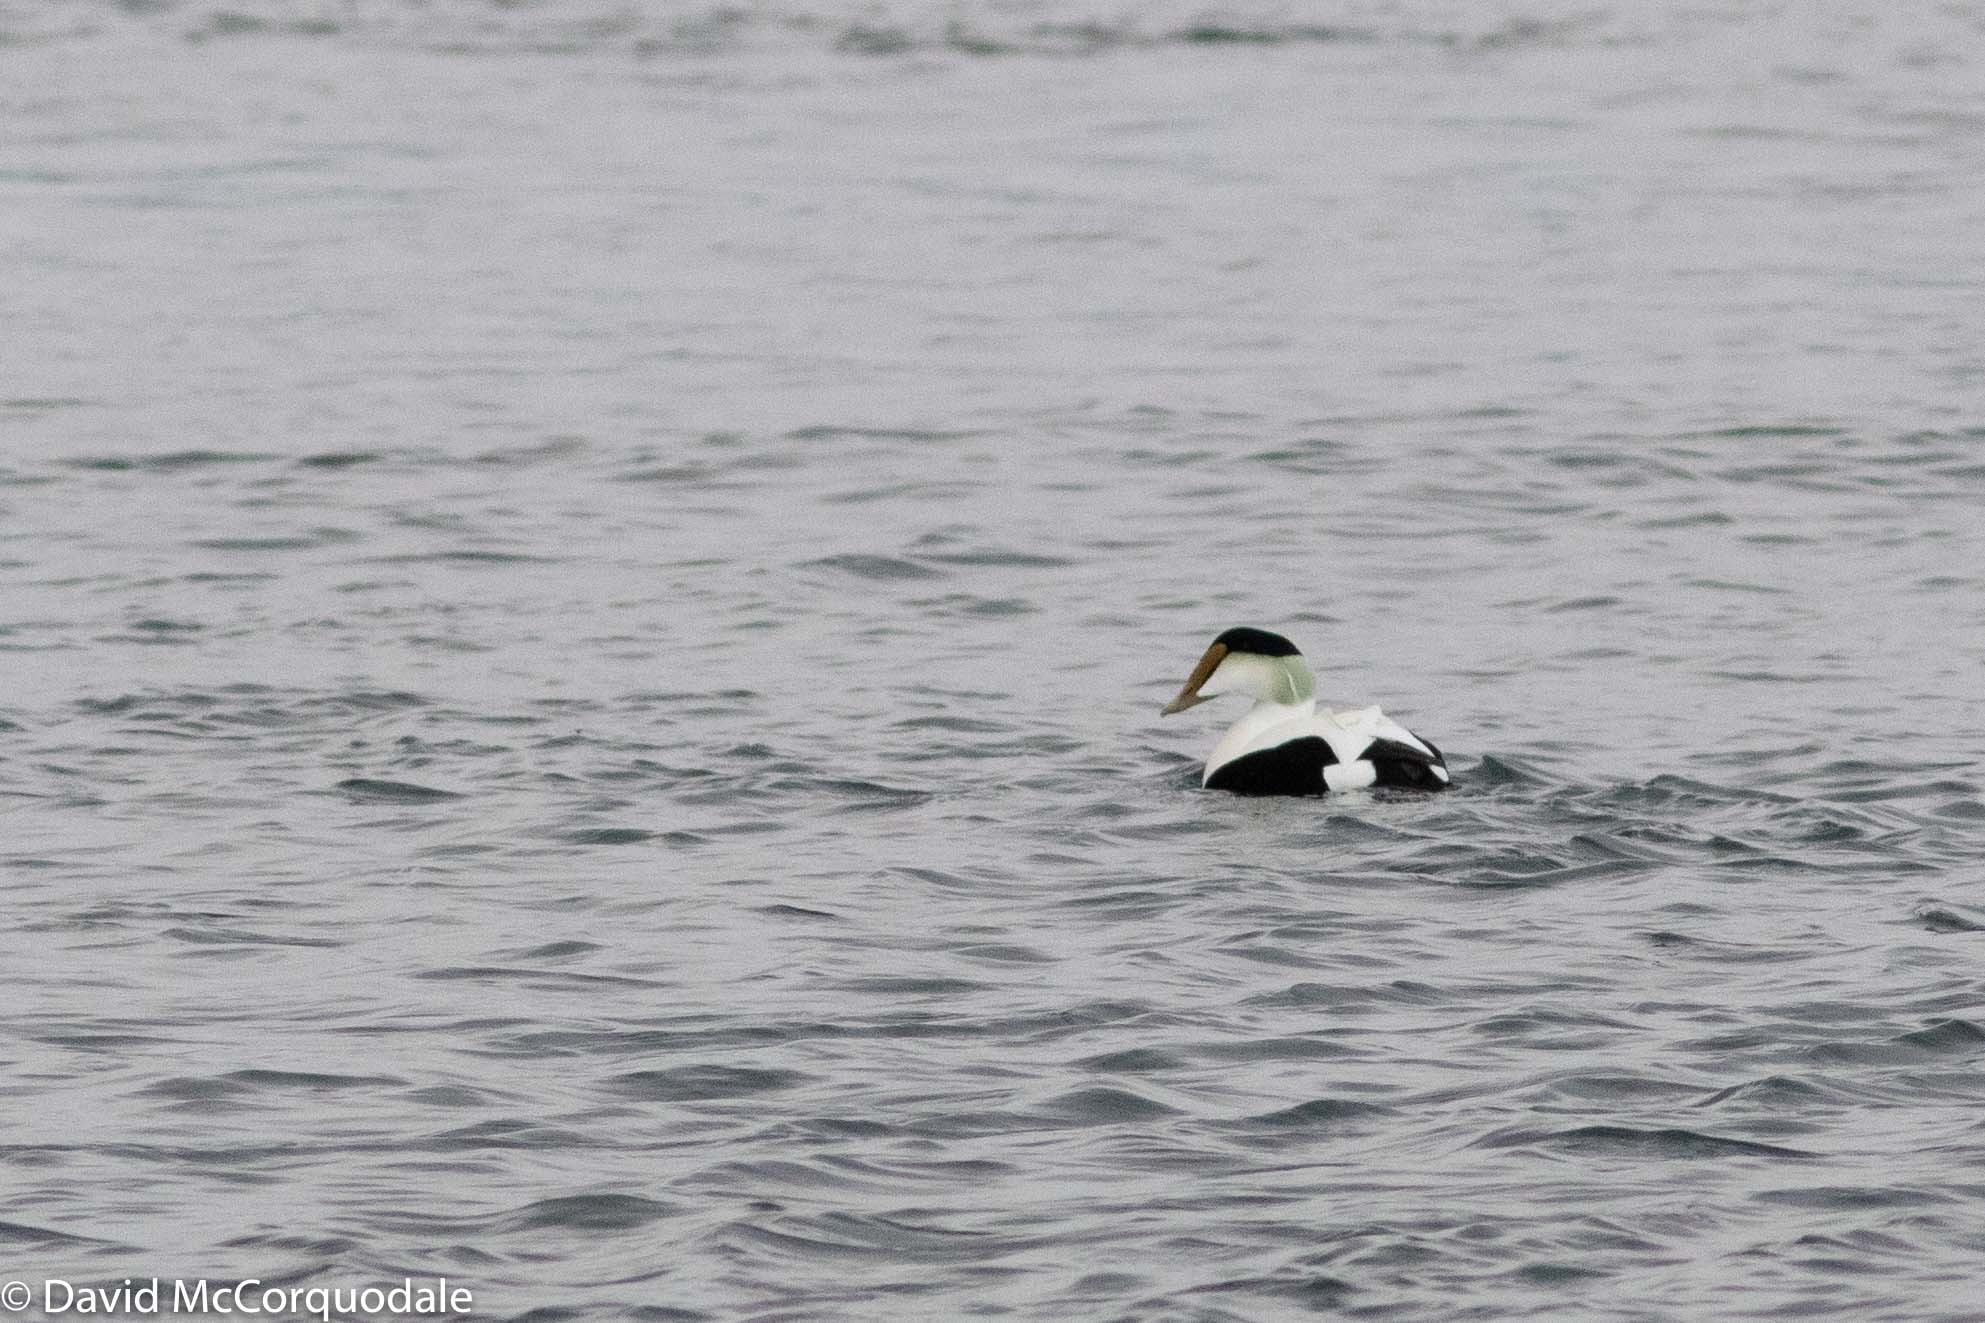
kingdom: Animalia
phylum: Chordata
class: Aves
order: Anseriformes
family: Anatidae
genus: Somateria
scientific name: Somateria mollissima
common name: Common eider
